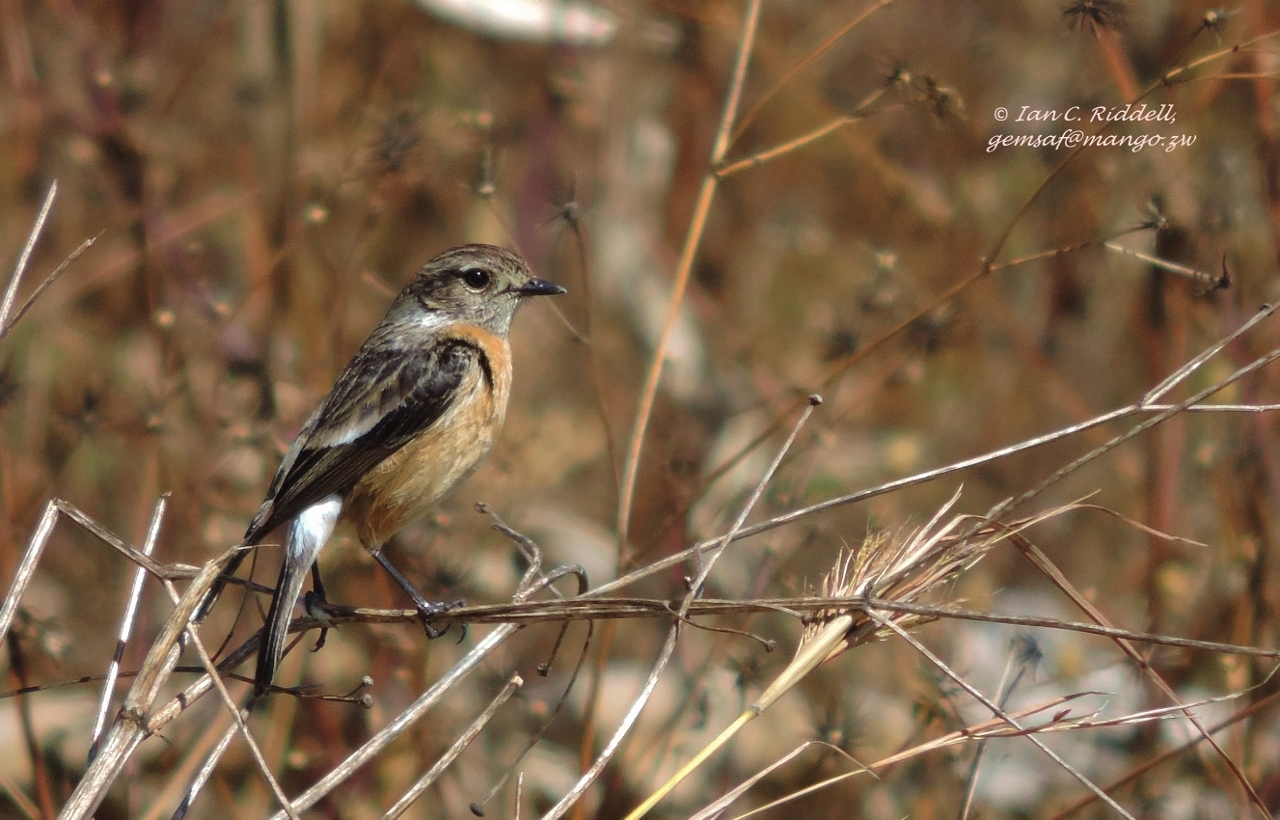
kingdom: Animalia
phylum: Chordata
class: Aves
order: Passeriformes
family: Muscicapidae
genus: Saxicola
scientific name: Saxicola torquatus
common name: African stonechat
